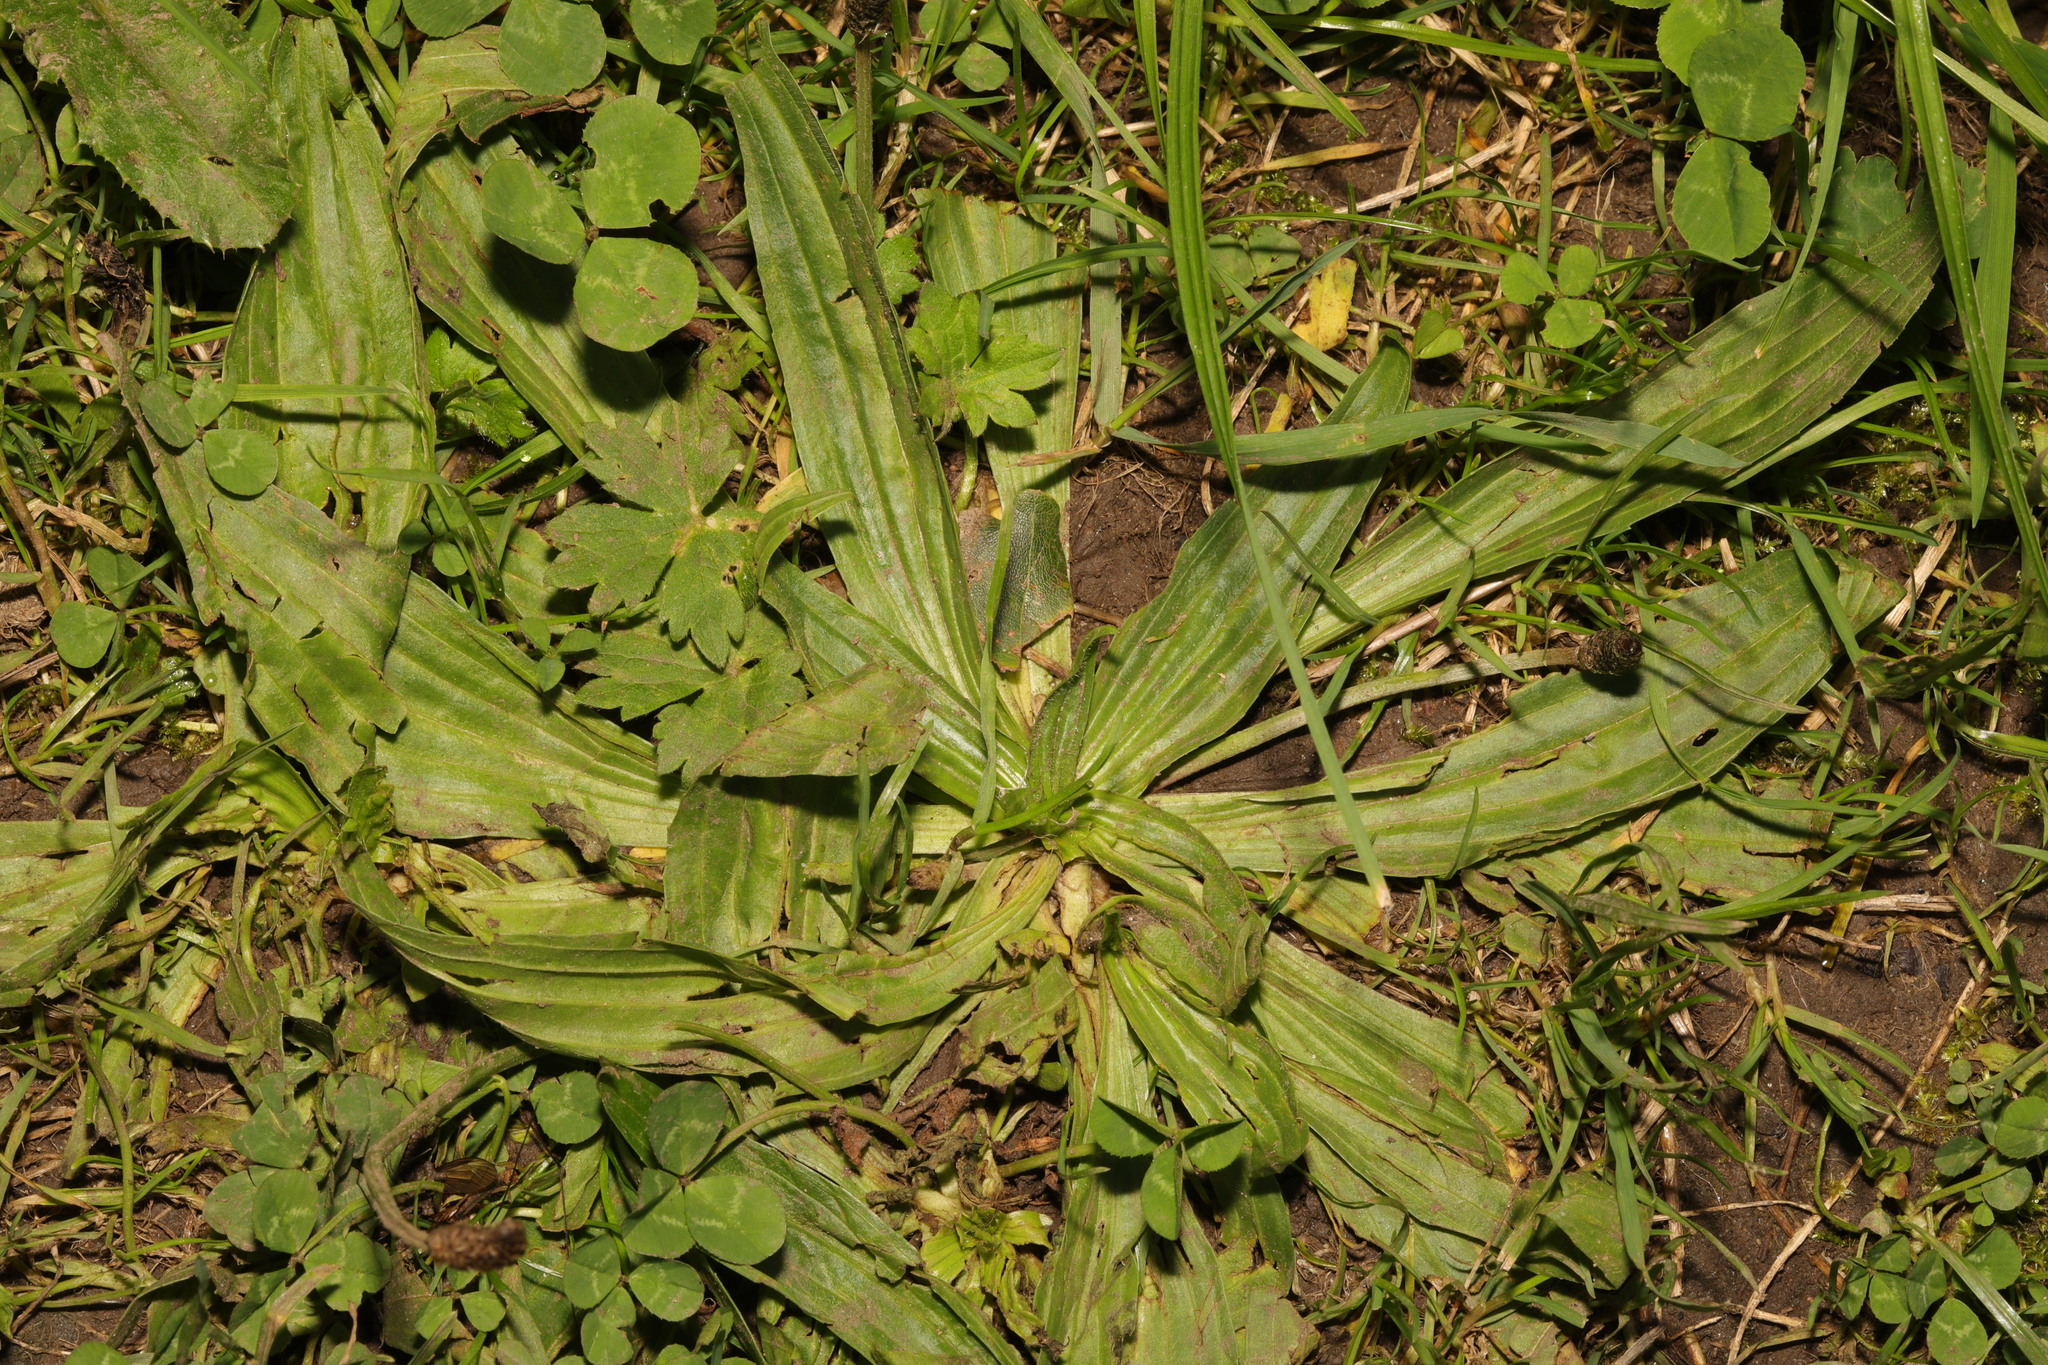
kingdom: Plantae
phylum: Tracheophyta
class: Magnoliopsida
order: Lamiales
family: Plantaginaceae
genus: Plantago
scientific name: Plantago lanceolata
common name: Ribwort plantain
